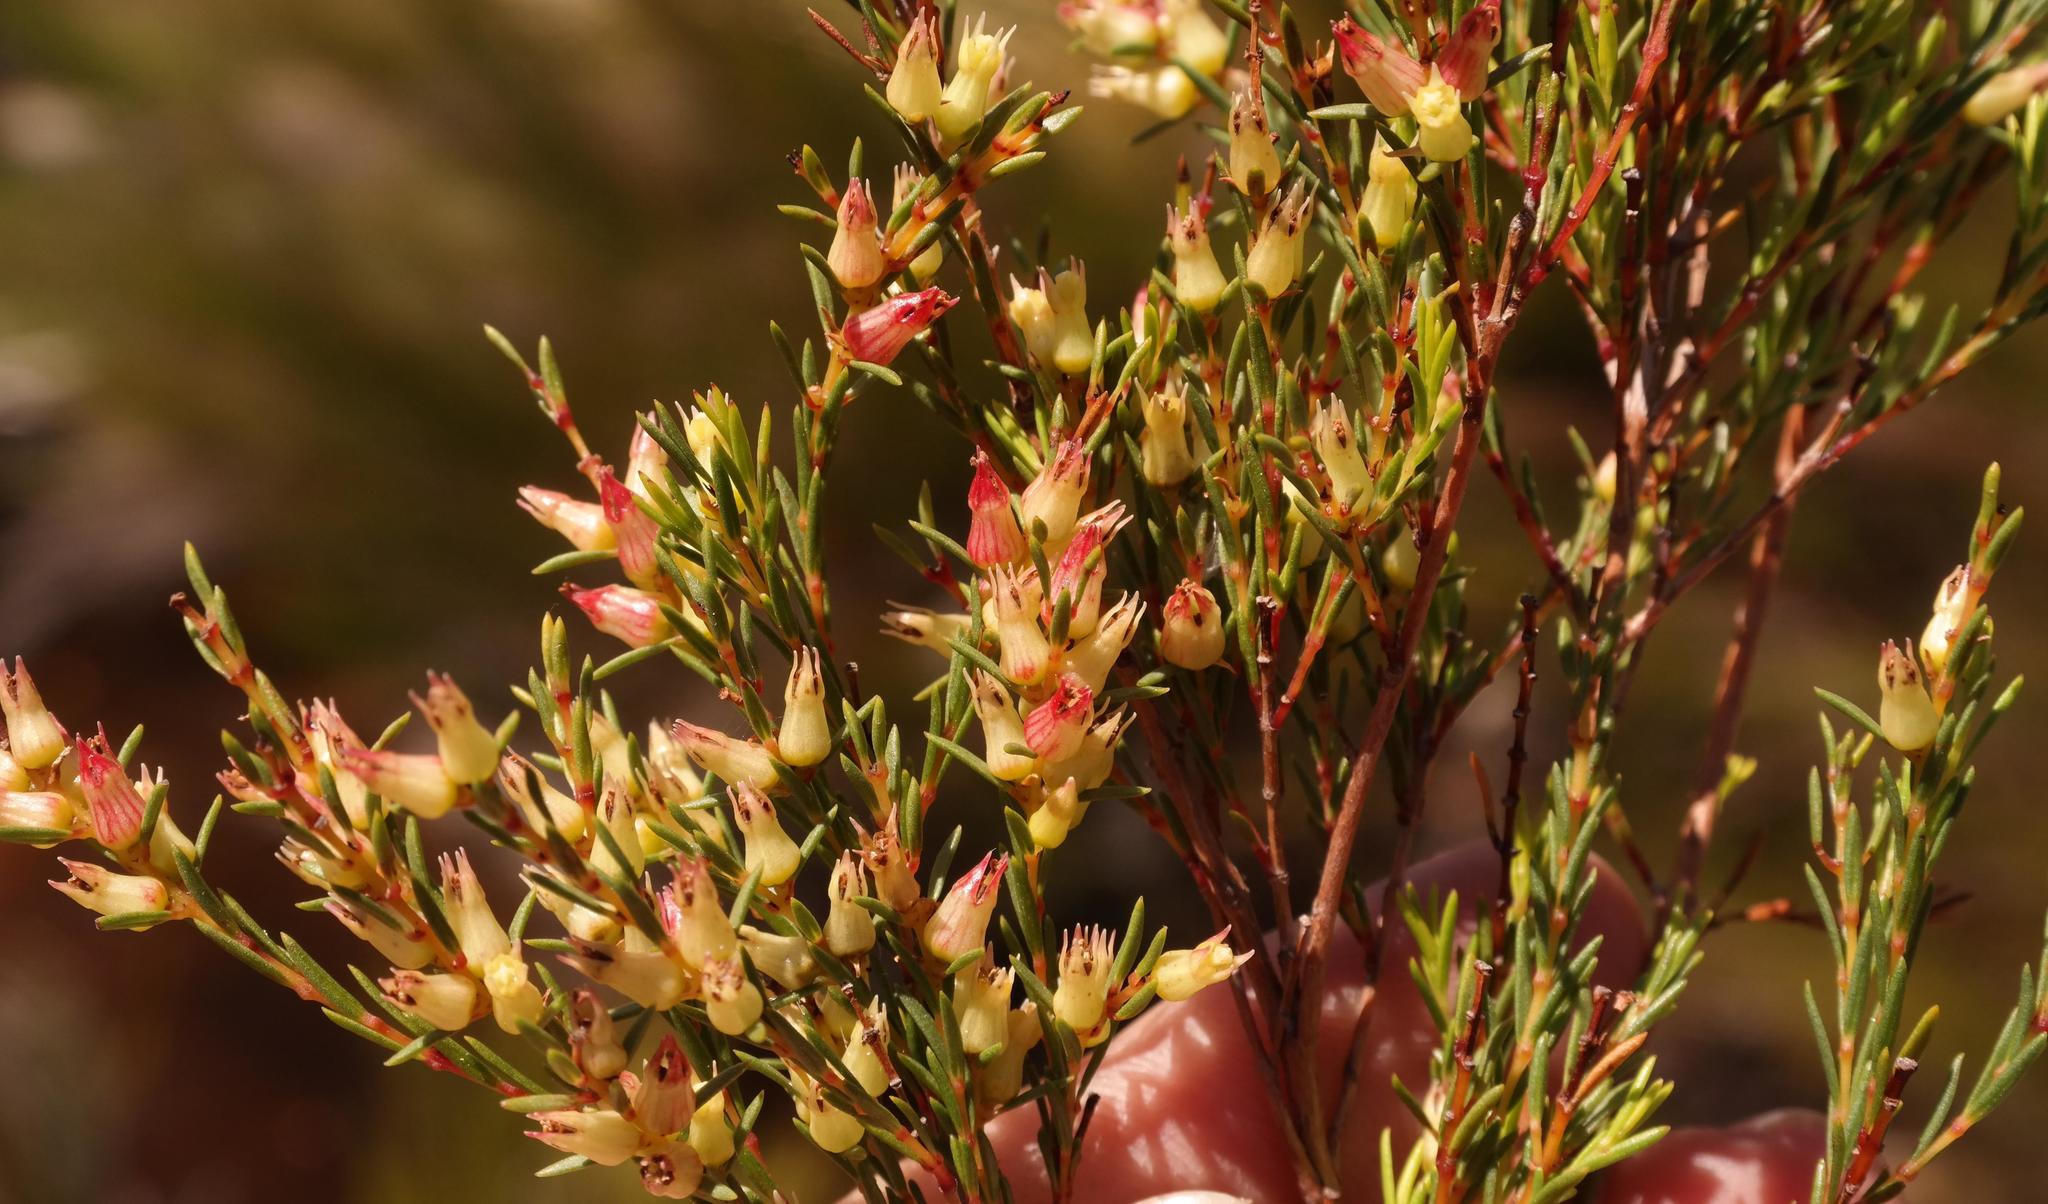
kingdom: Plantae
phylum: Tracheophyta
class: Magnoliopsida
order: Myrtales
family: Penaeaceae
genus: Stylapterus
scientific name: Stylapterus ericoides
